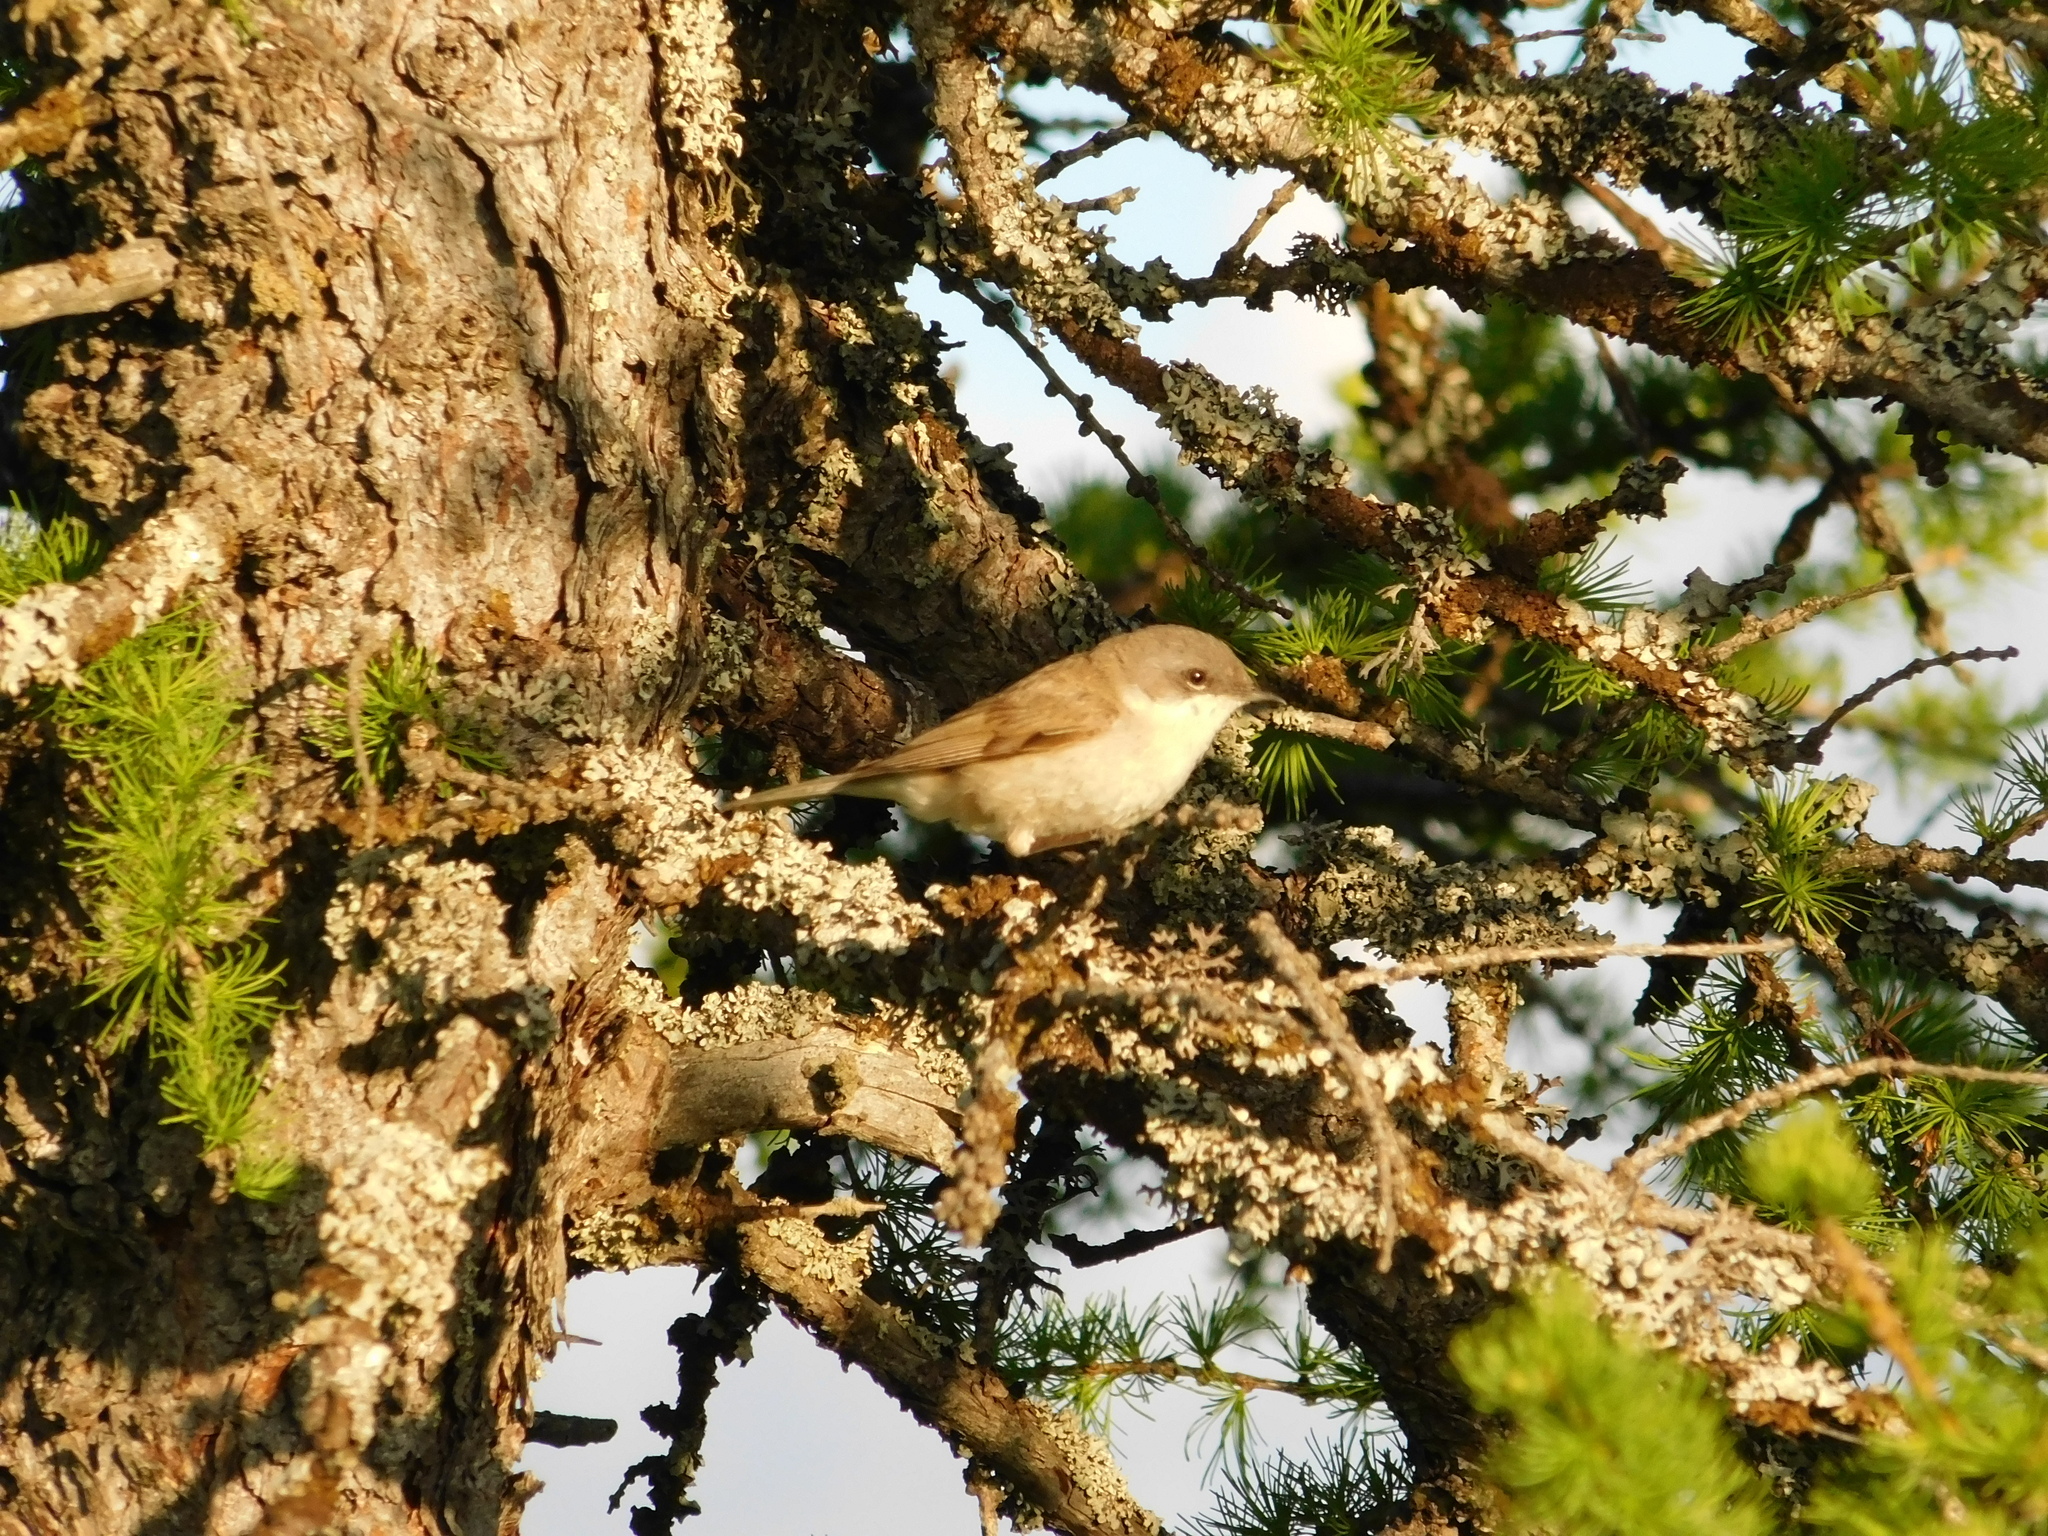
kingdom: Animalia
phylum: Chordata
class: Aves
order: Passeriformes
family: Sylviidae
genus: Sylvia
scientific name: Sylvia curruca
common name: Lesser whitethroat
